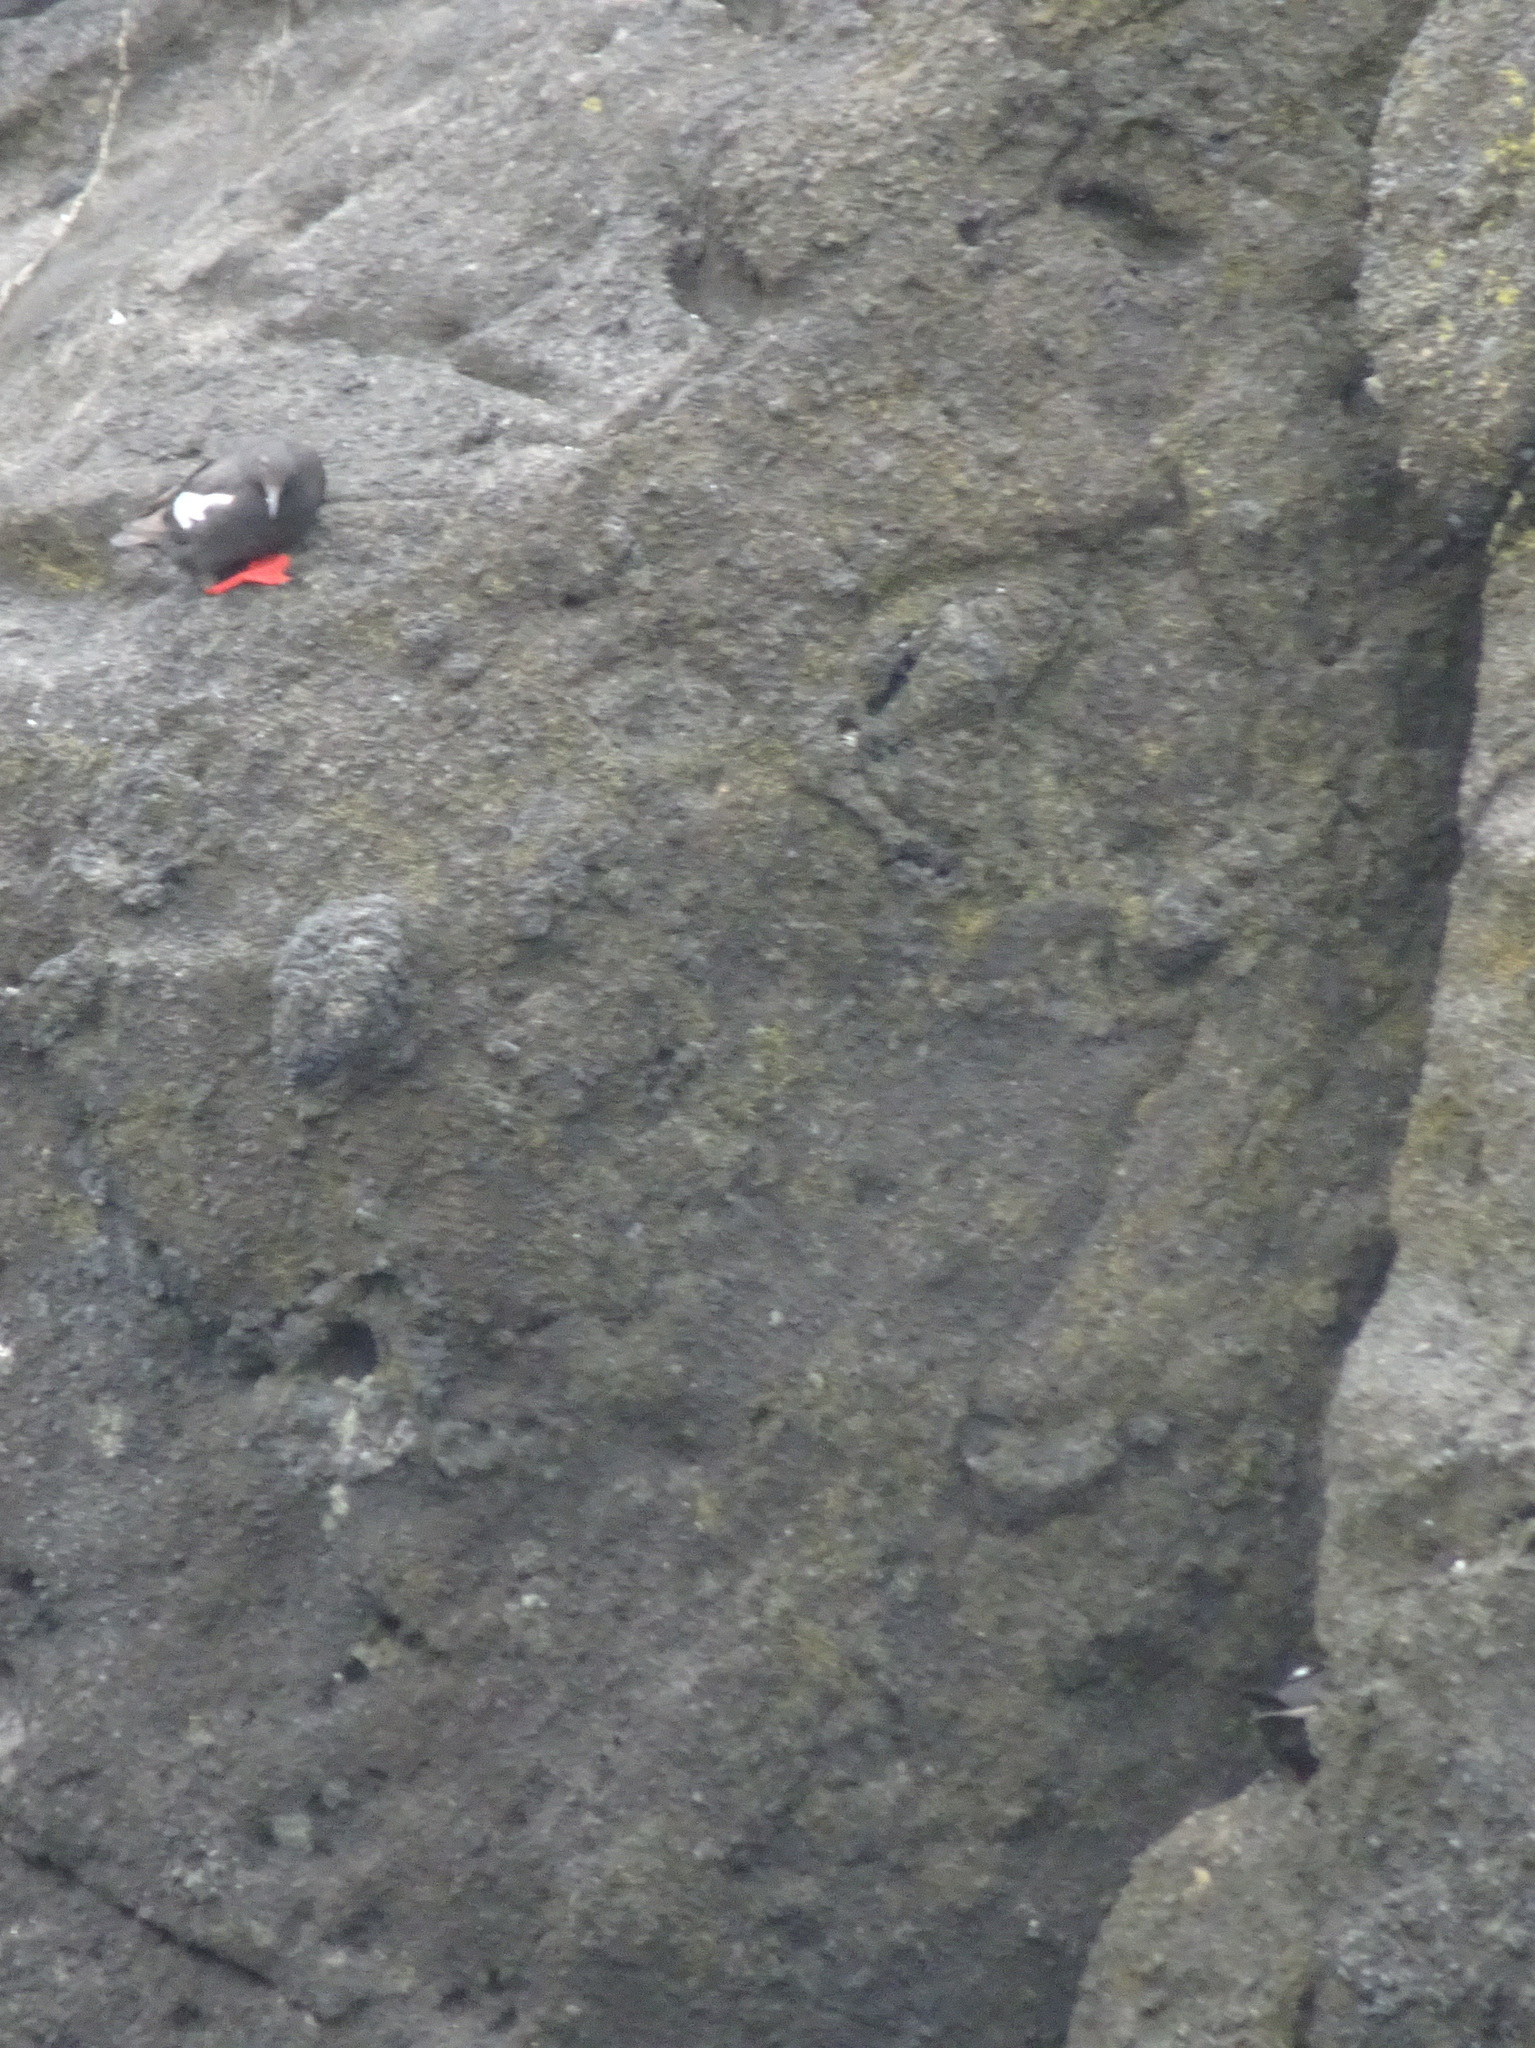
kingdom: Animalia
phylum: Chordata
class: Aves
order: Charadriiformes
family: Alcidae
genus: Cepphus
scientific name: Cepphus columba
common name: Pigeon guillemot
